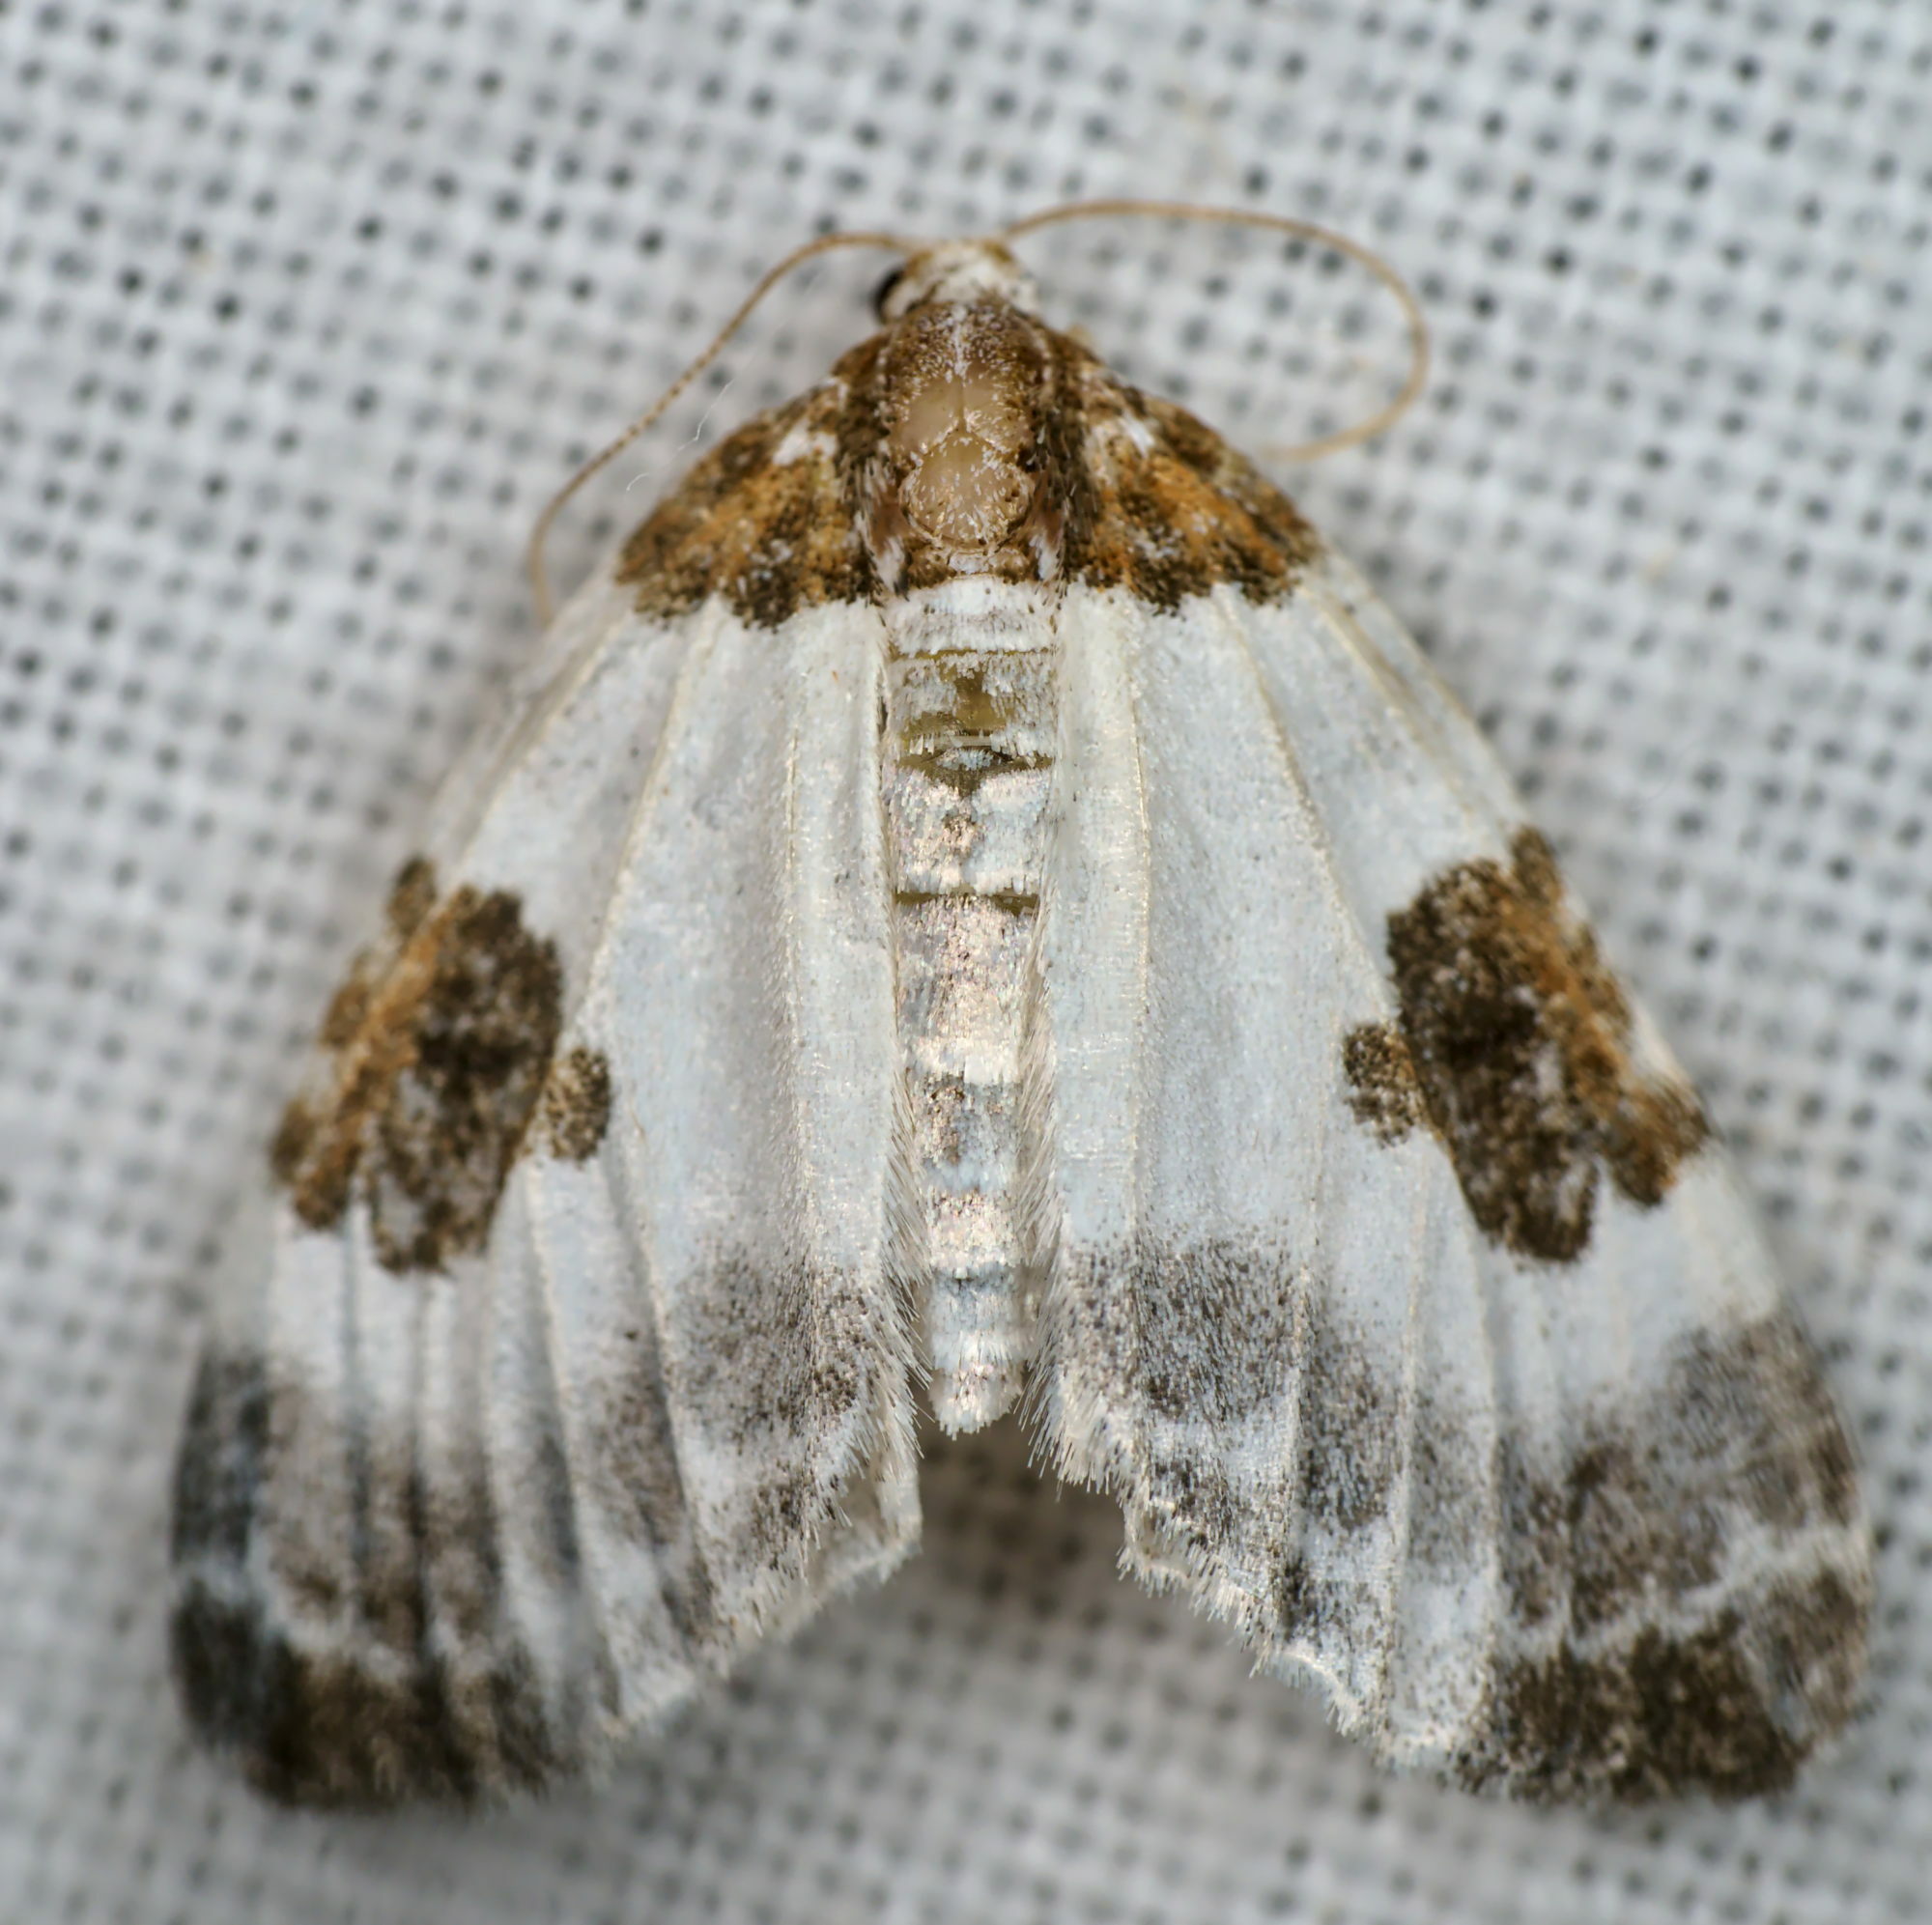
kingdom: Animalia
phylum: Arthropoda
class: Insecta
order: Lepidoptera
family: Geometridae
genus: Plemyria
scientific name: Plemyria rubiginata
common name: Blue-bordered carpet
